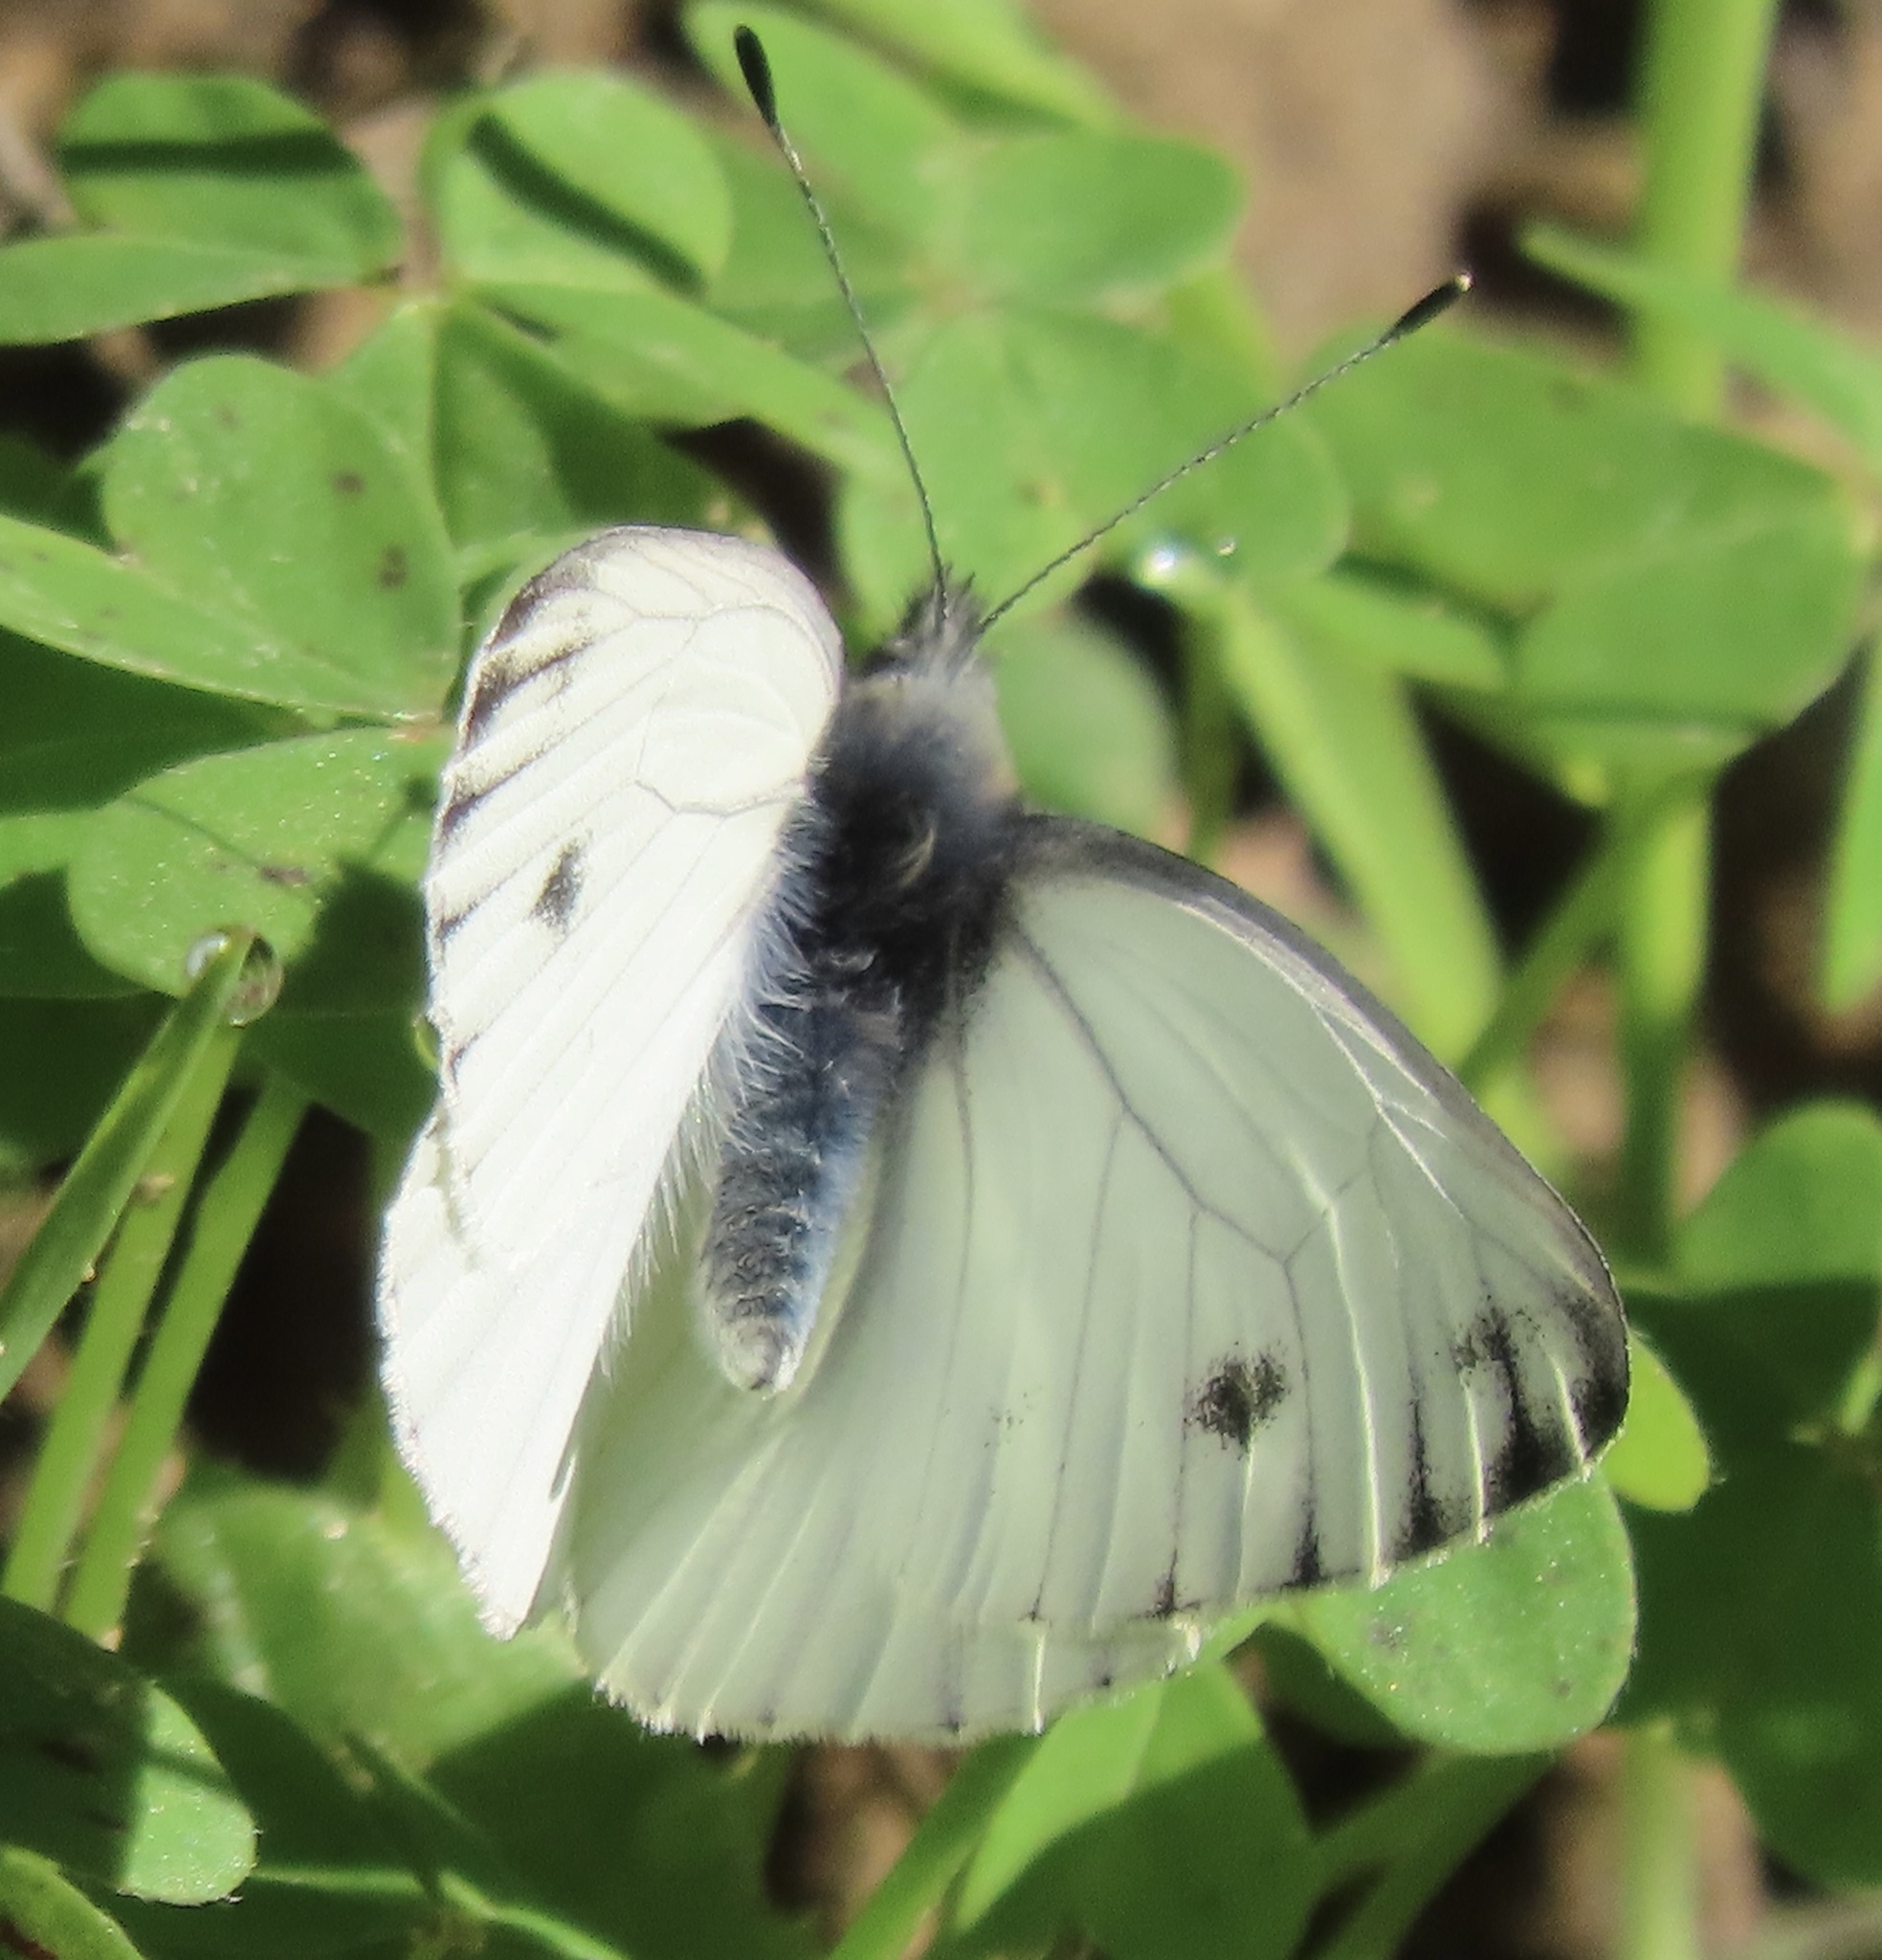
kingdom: Animalia
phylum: Arthropoda
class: Insecta
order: Lepidoptera
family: Pieridae
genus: Pieris
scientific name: Pieris marginalis
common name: Margined white
